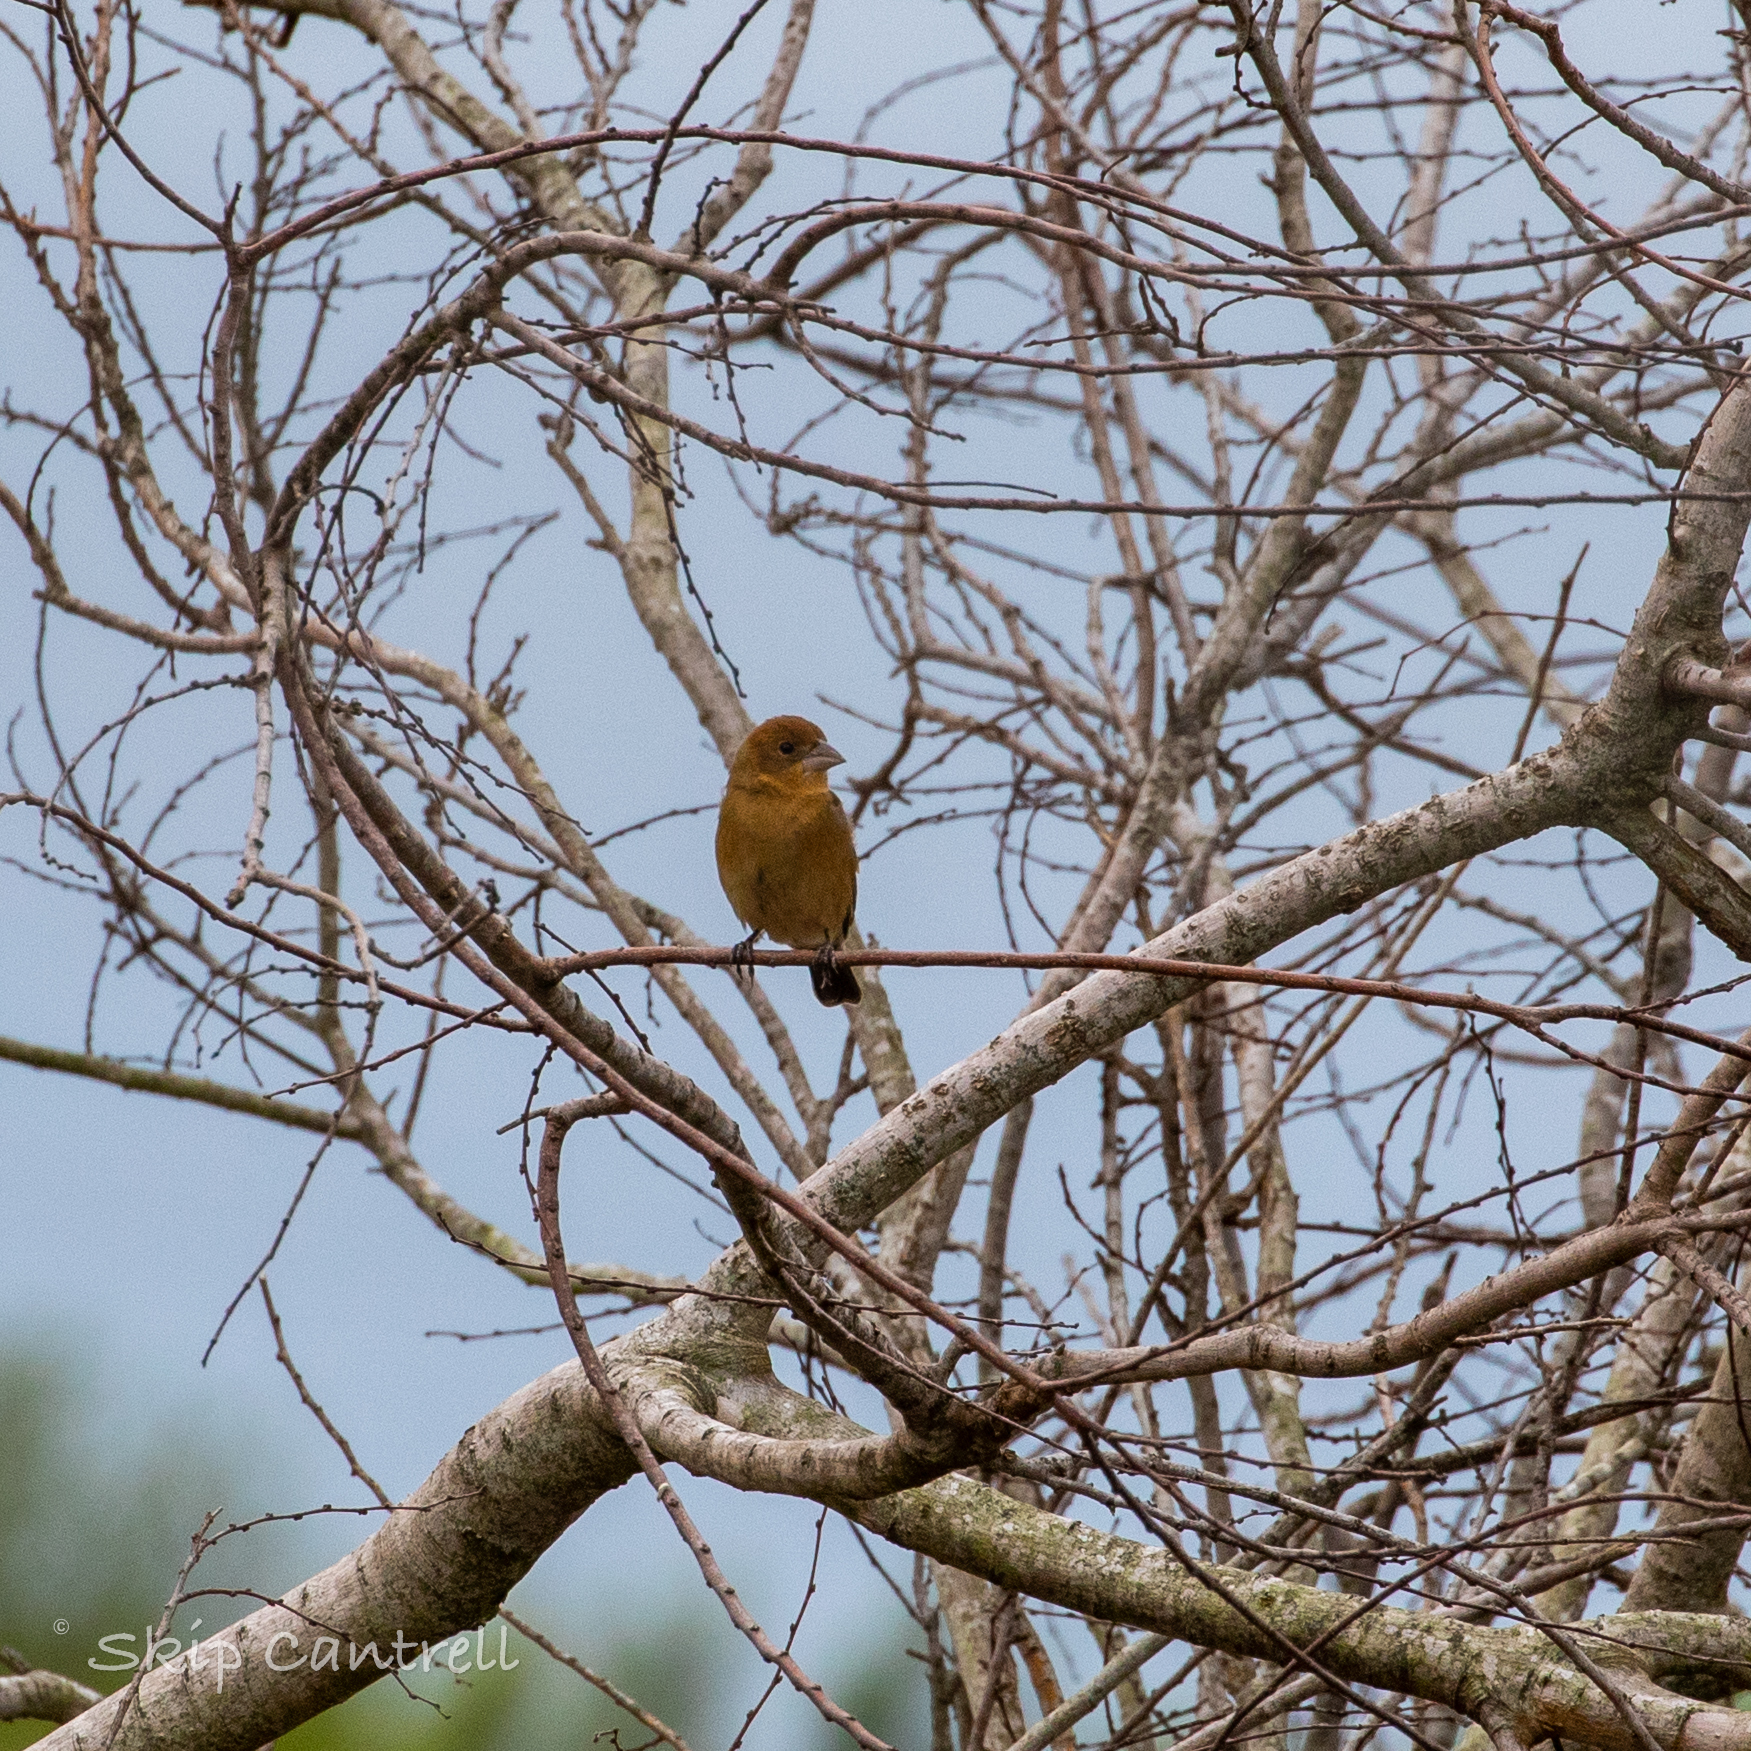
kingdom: Animalia
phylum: Chordata
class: Aves
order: Passeriformes
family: Cardinalidae
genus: Passerina
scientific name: Passerina caerulea
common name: Blue grosbeak
